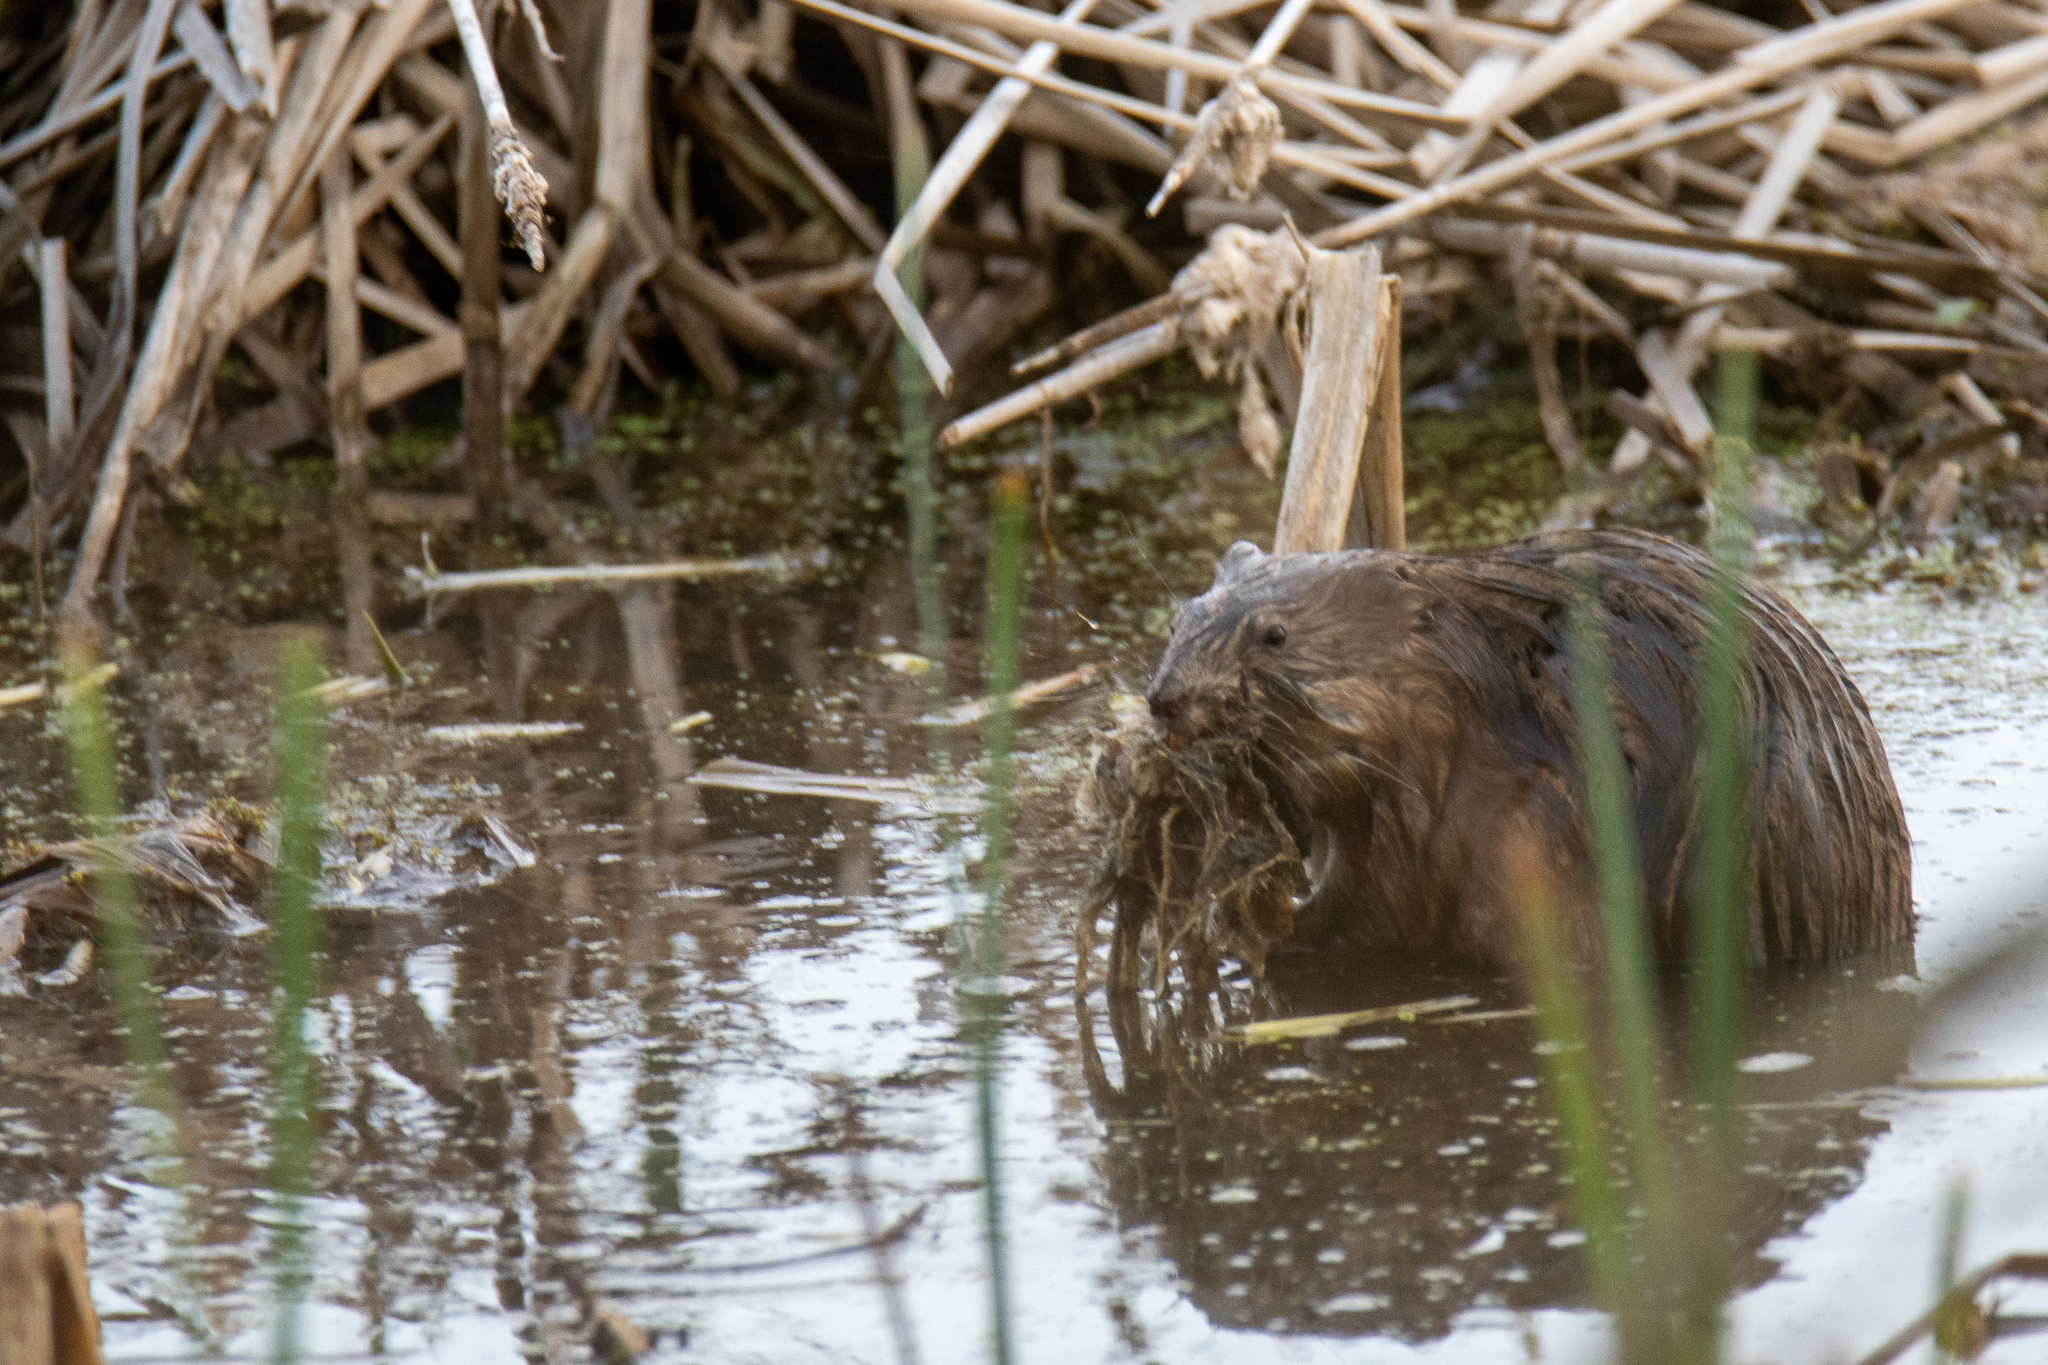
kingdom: Animalia
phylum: Chordata
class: Mammalia
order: Rodentia
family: Cricetidae
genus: Ondatra
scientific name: Ondatra zibethicus
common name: Muskrat
